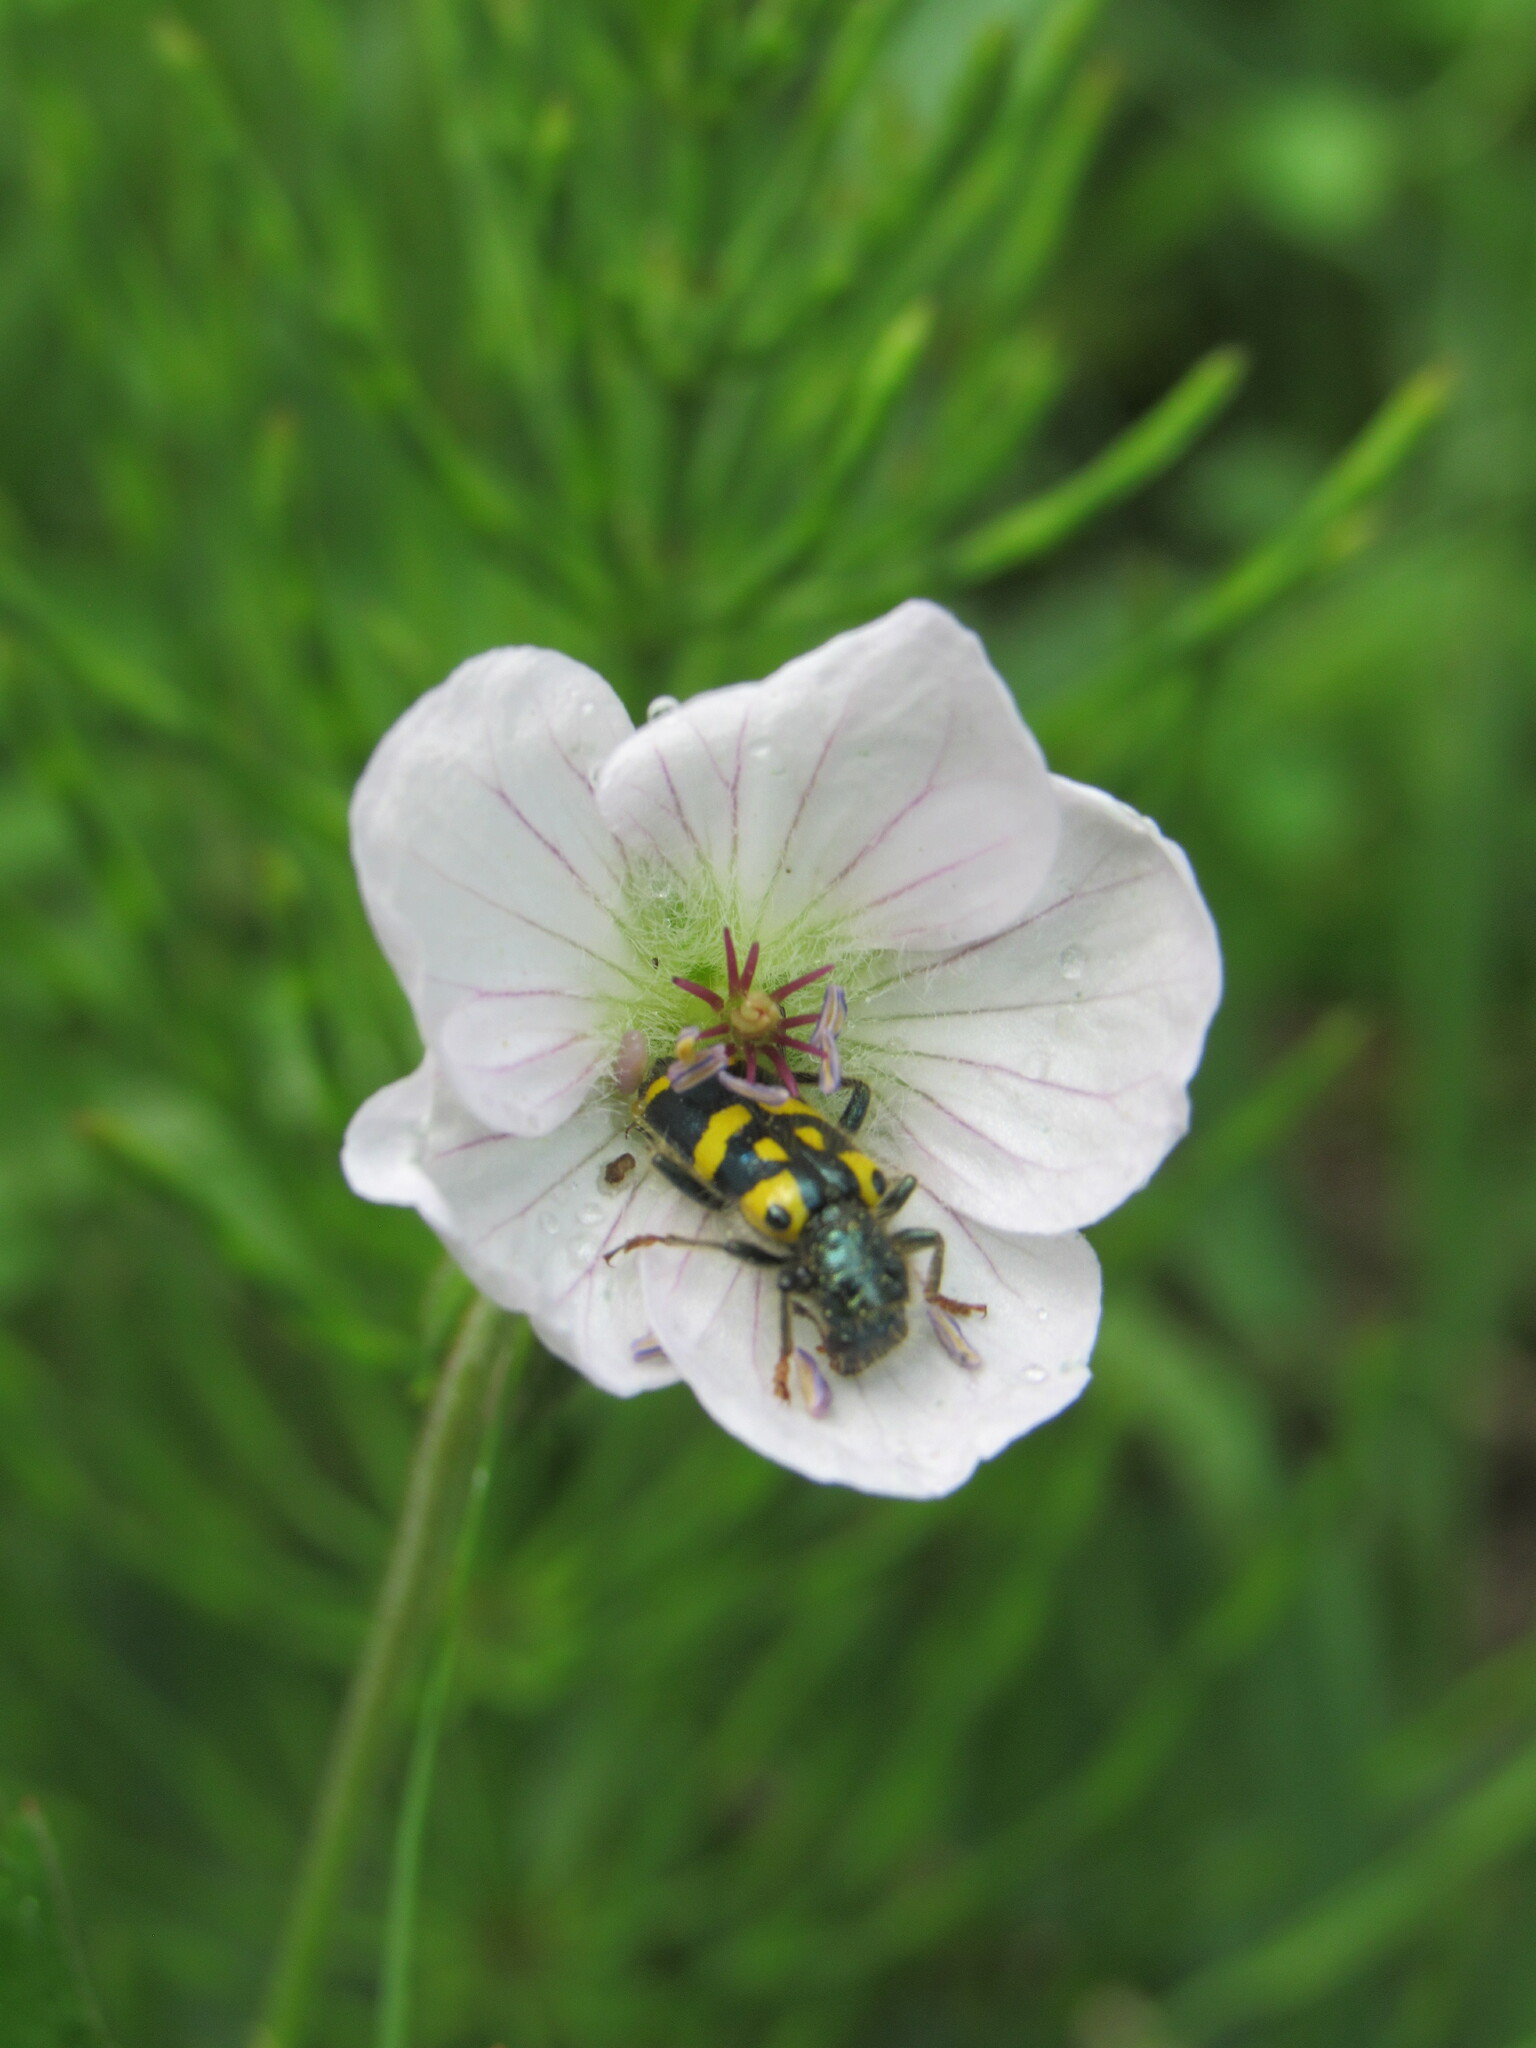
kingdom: Animalia
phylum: Arthropoda
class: Insecta
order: Coleoptera
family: Cleridae
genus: Trichodes
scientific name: Trichodes ornatus
